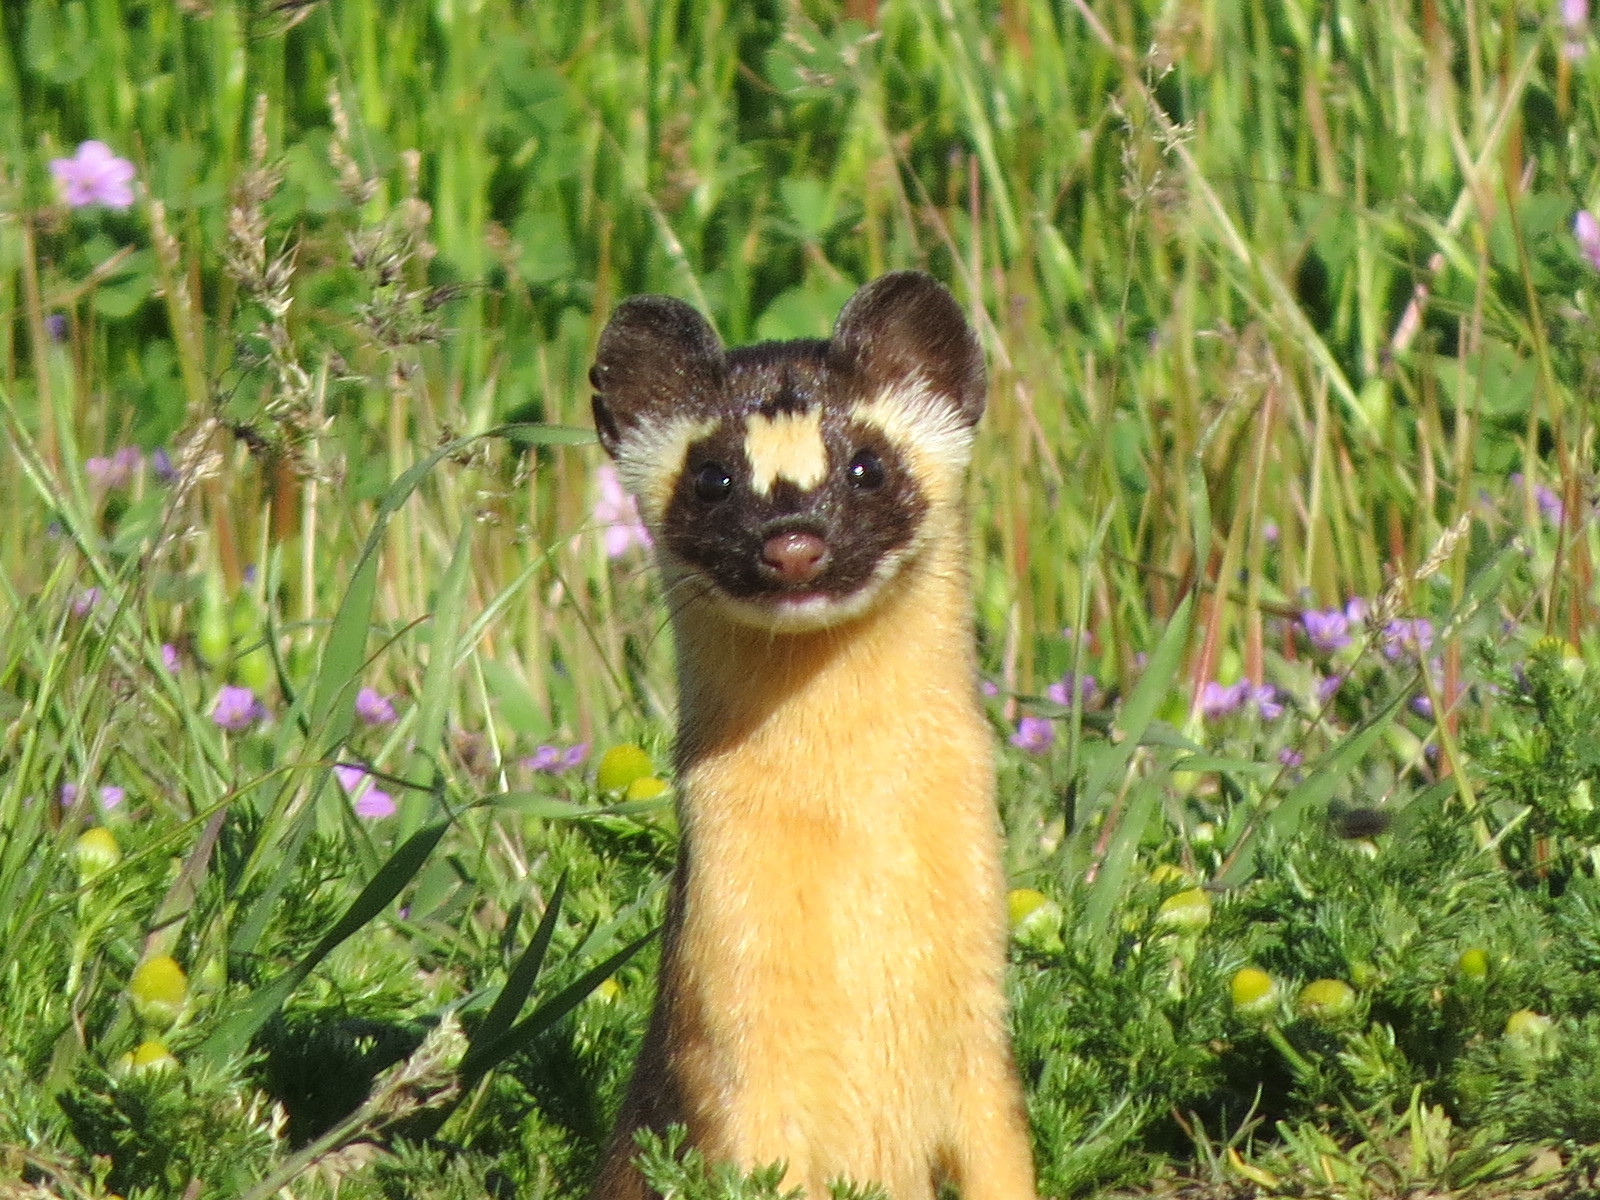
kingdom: Animalia
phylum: Chordata
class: Mammalia
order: Carnivora
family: Mustelidae
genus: Mustela
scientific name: Mustela
